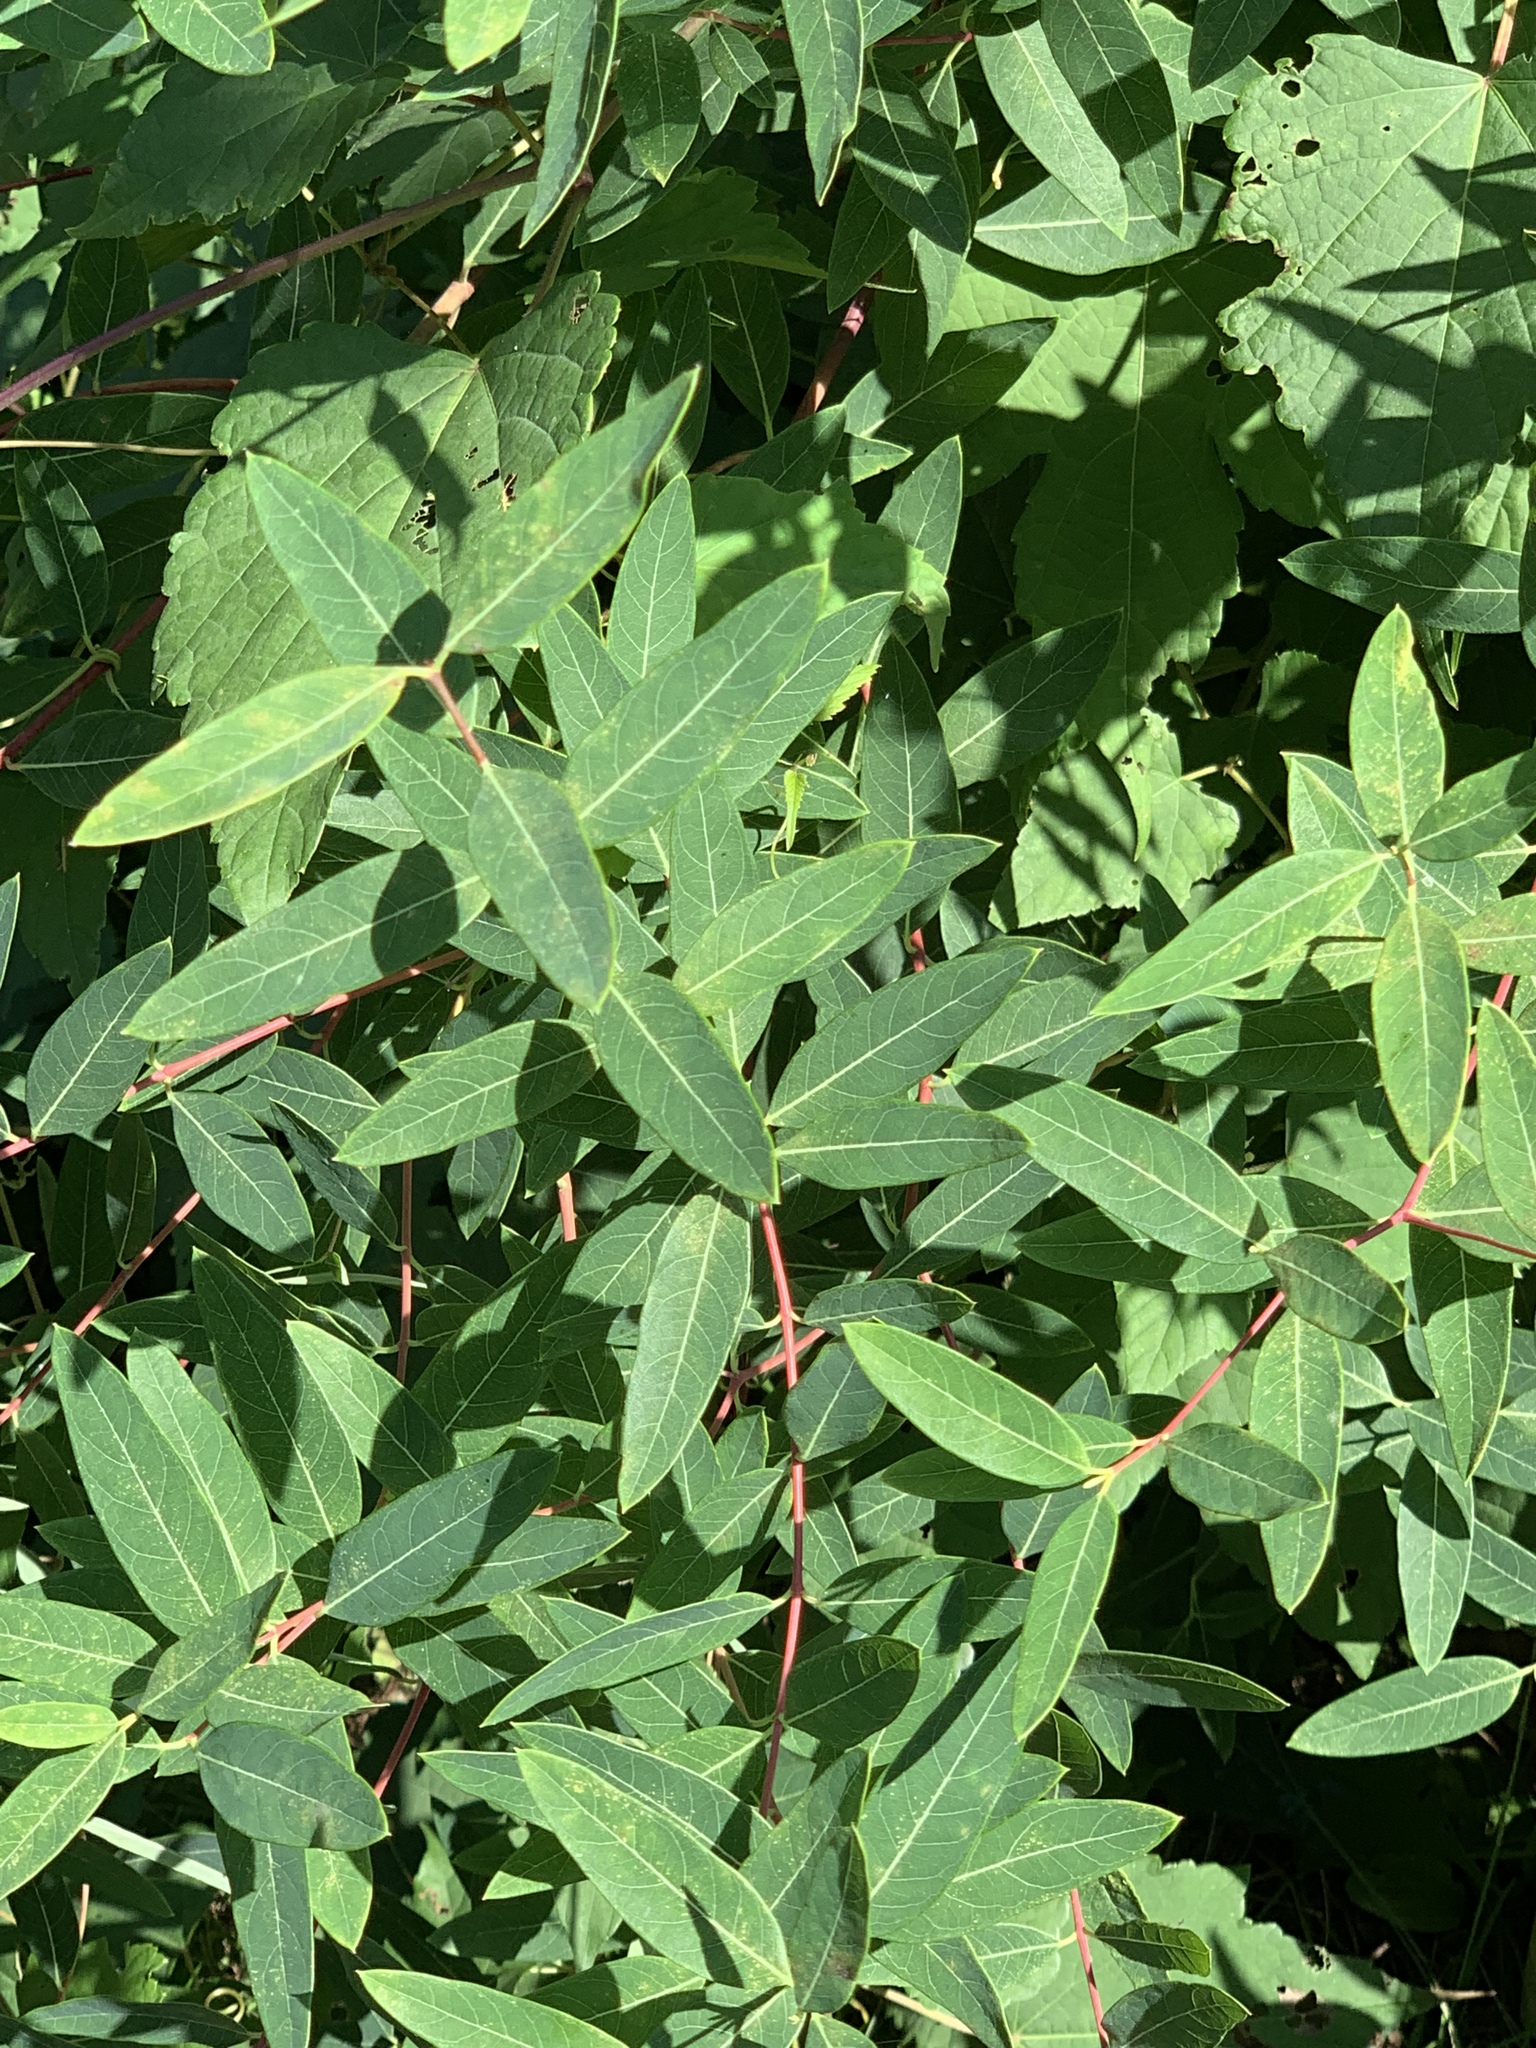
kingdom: Plantae
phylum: Tracheophyta
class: Magnoliopsida
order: Gentianales
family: Apocynaceae
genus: Apocynum
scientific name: Apocynum cannabinum
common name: Hemp dogbane
